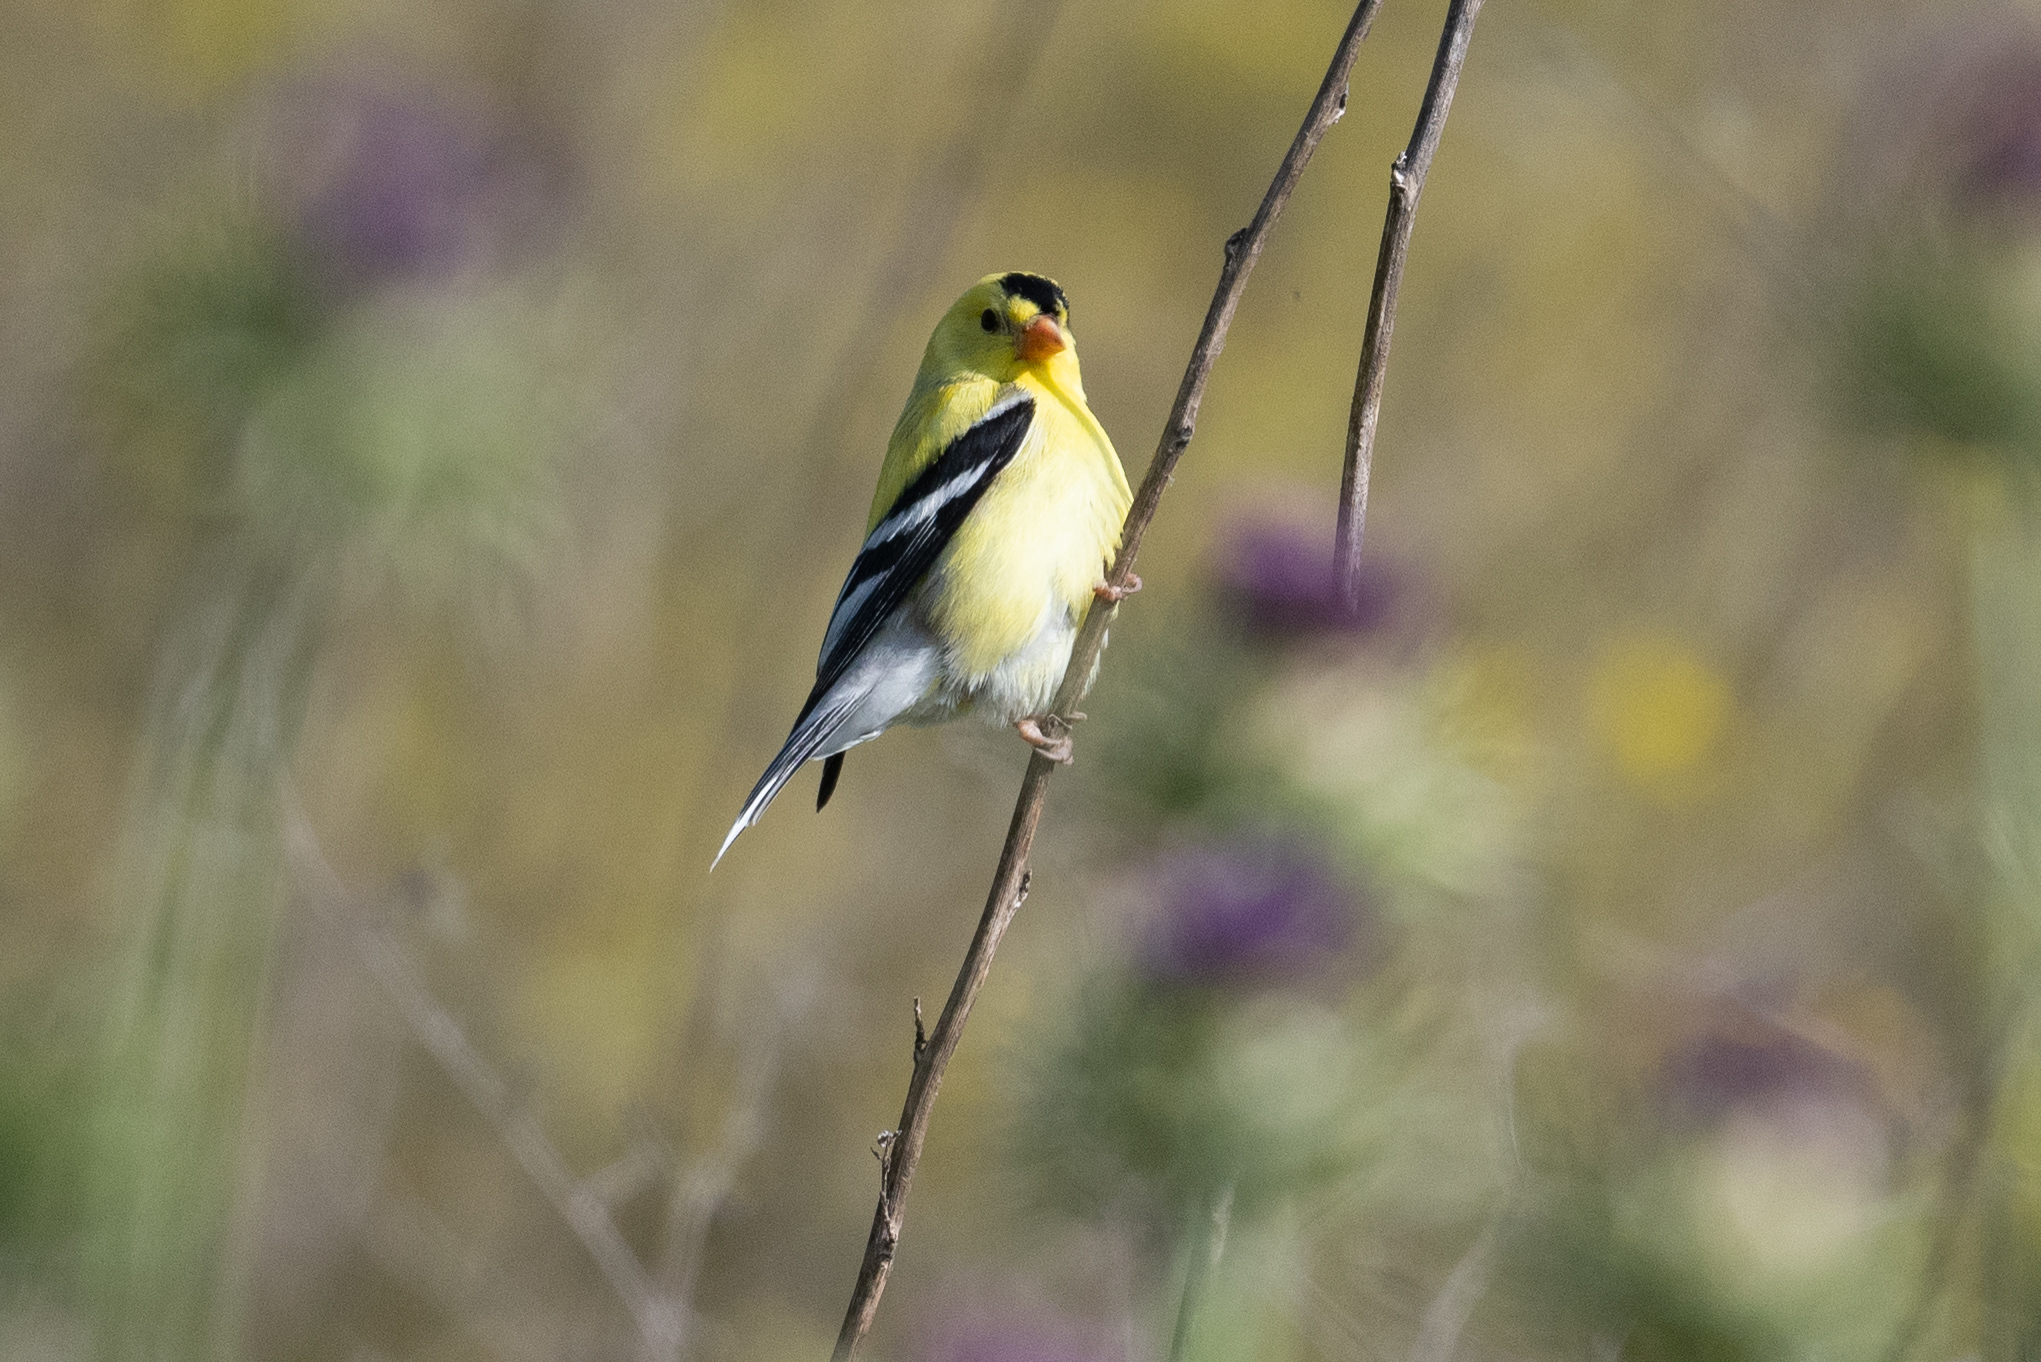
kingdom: Animalia
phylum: Chordata
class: Aves
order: Passeriformes
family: Fringillidae
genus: Spinus
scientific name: Spinus tristis
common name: American goldfinch
